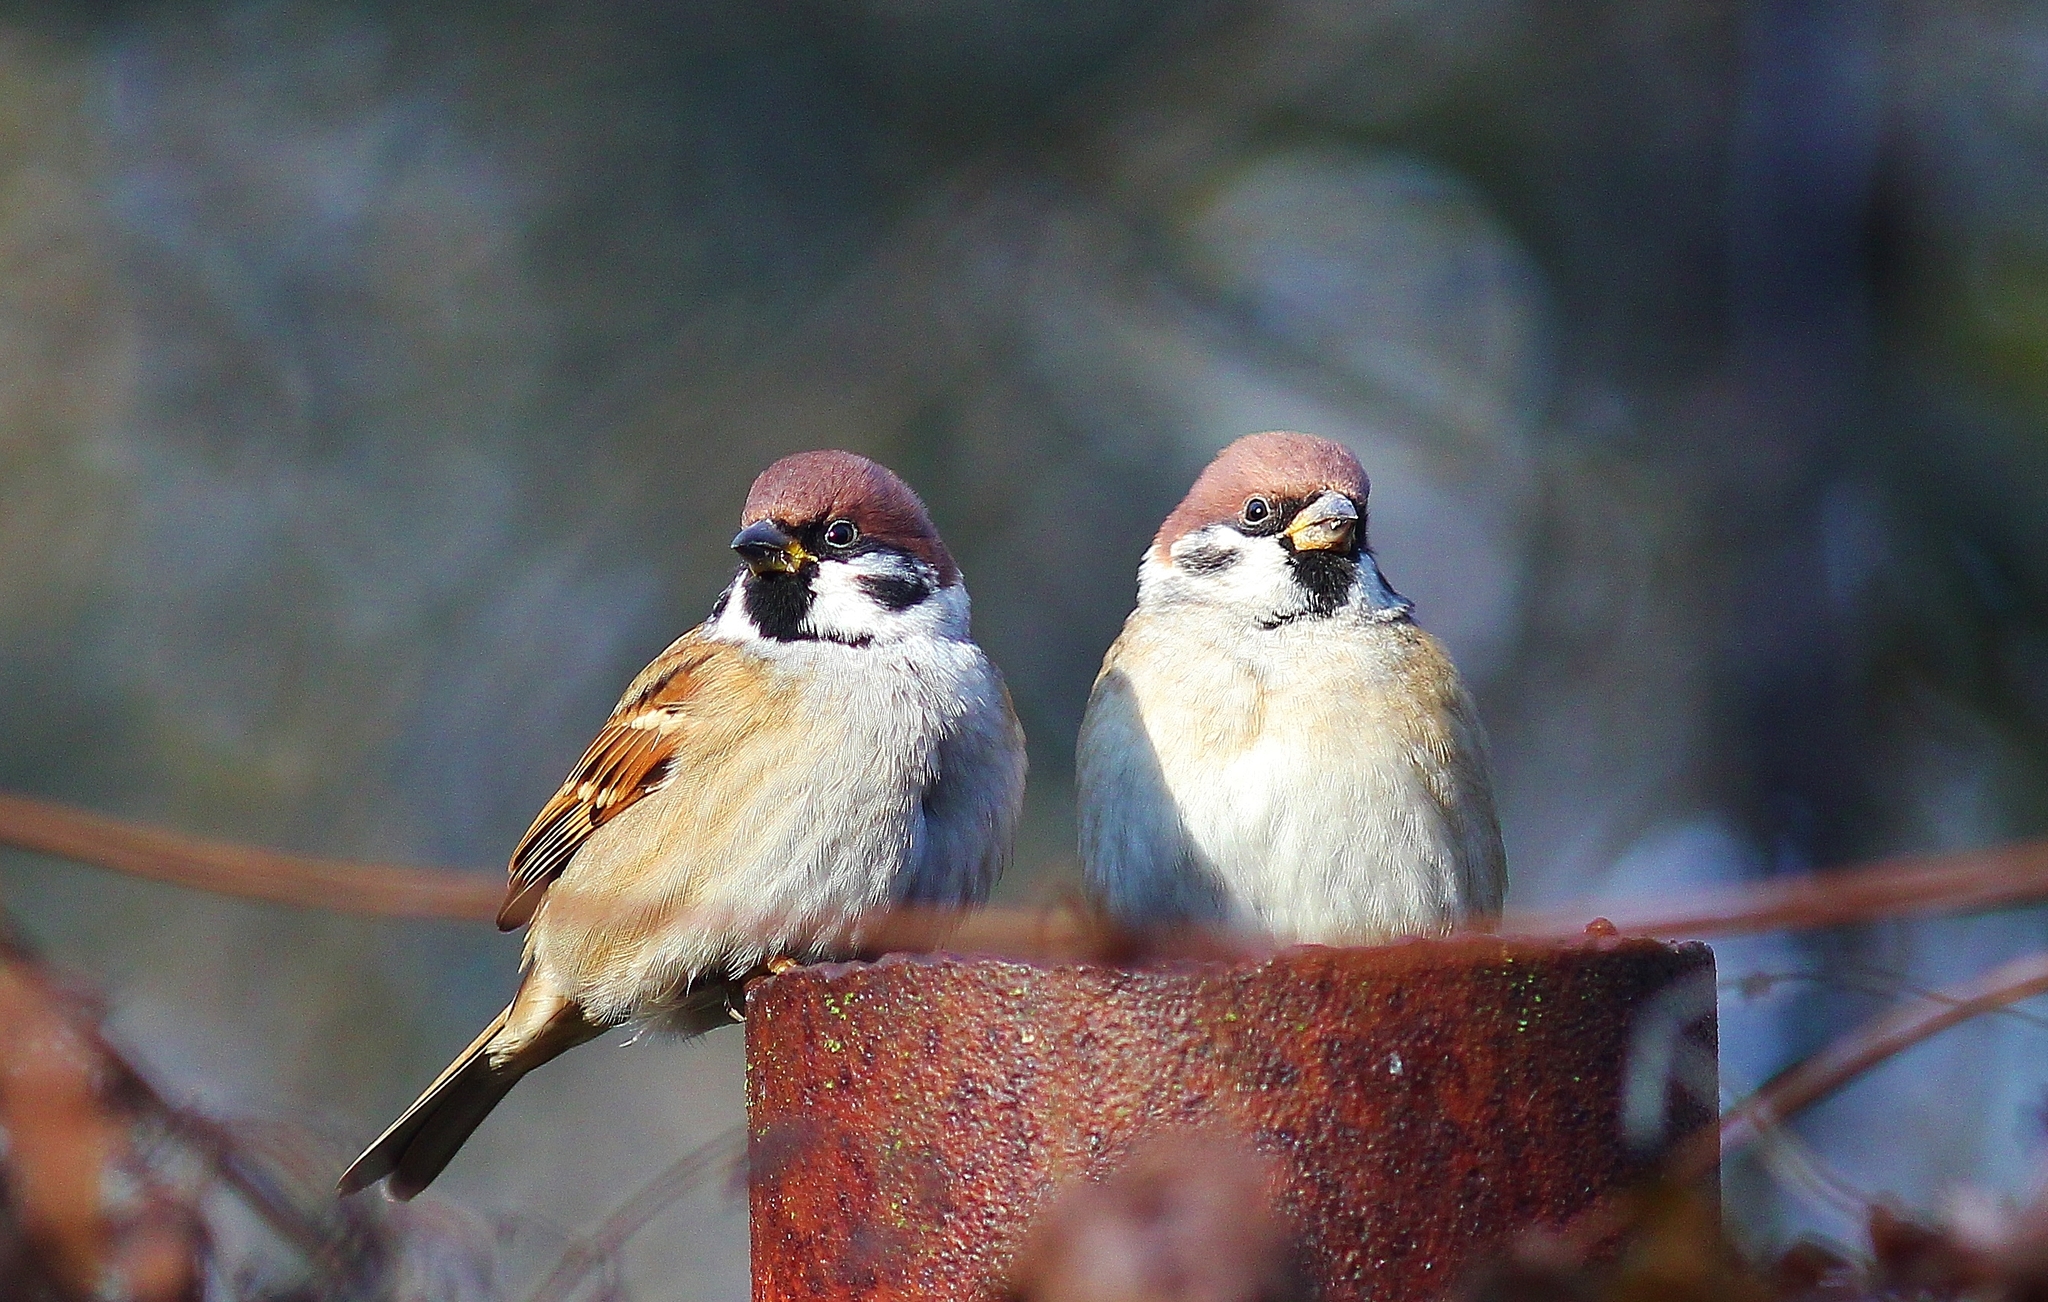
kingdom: Animalia
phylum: Chordata
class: Aves
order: Passeriformes
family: Passeridae
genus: Passer
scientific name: Passer montanus
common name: Eurasian tree sparrow
